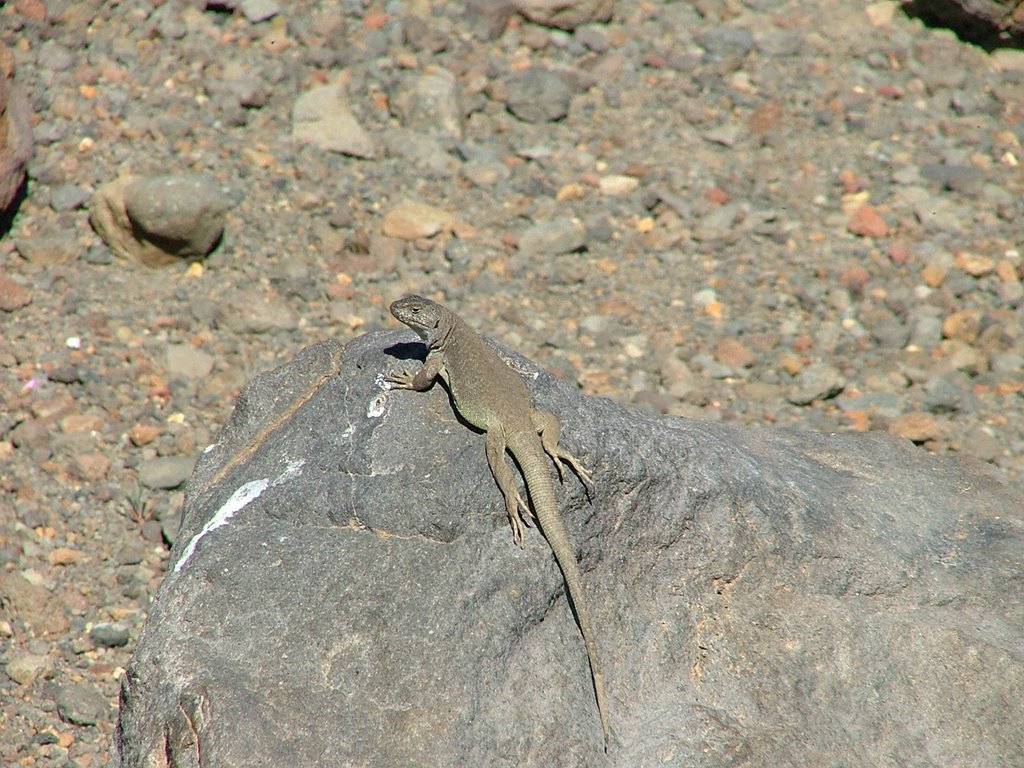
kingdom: Animalia
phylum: Chordata
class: Squamata
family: Liolaemidae
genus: Liolaemus
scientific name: Liolaemus thermarum
